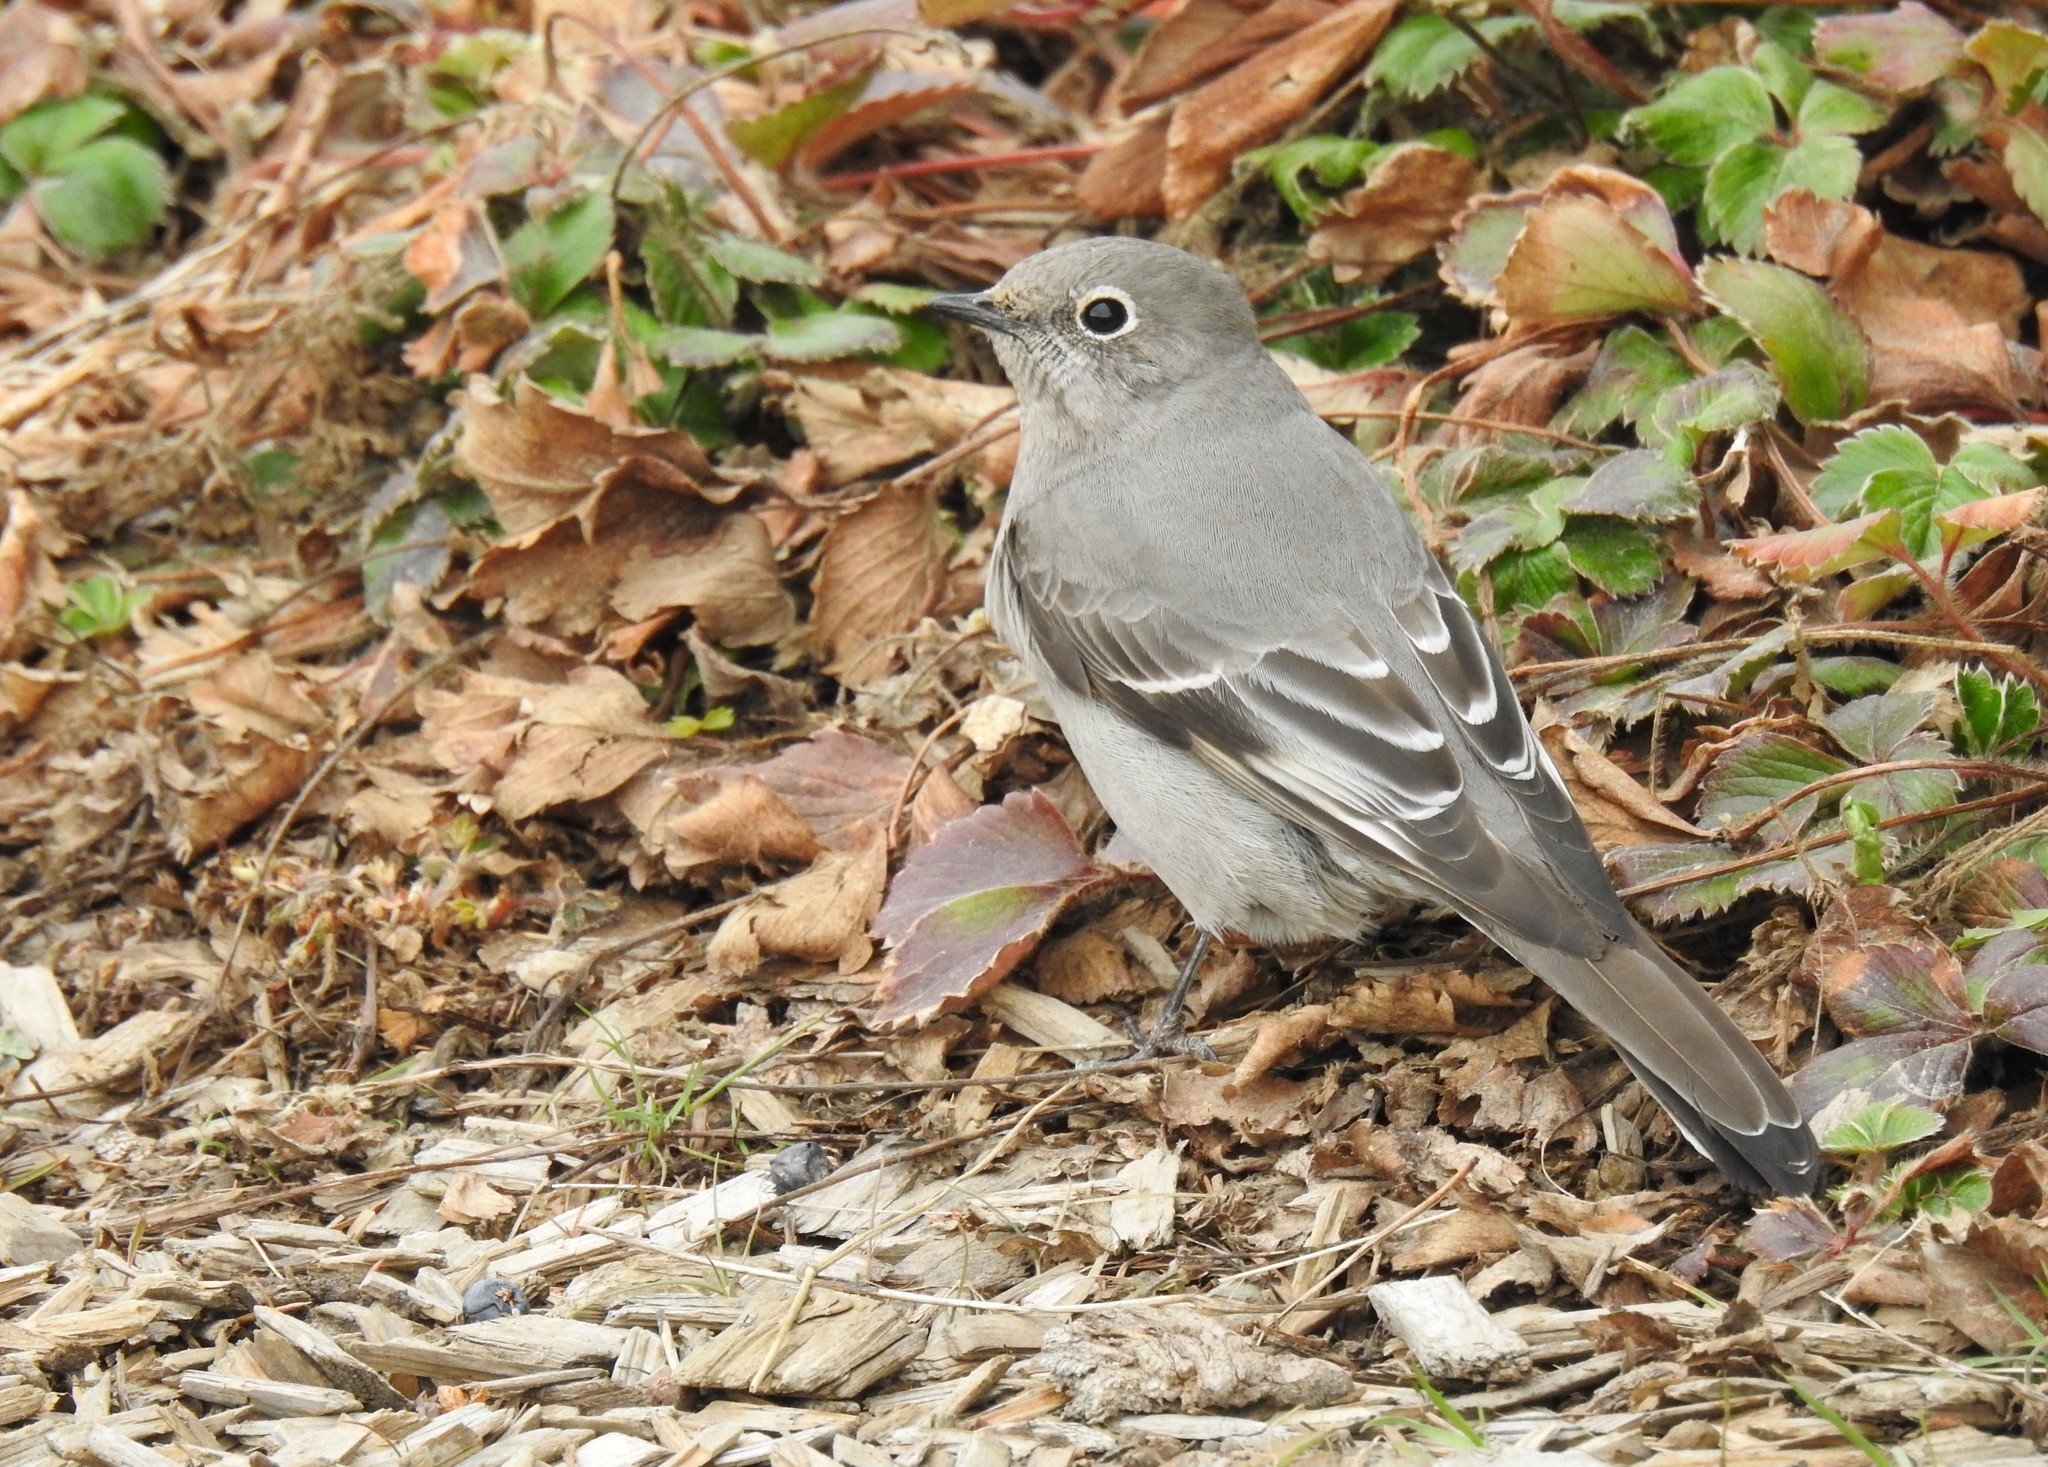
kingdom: Animalia
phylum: Chordata
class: Aves
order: Passeriformes
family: Turdidae
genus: Myadestes
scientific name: Myadestes townsendi
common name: Townsend's solitaire
